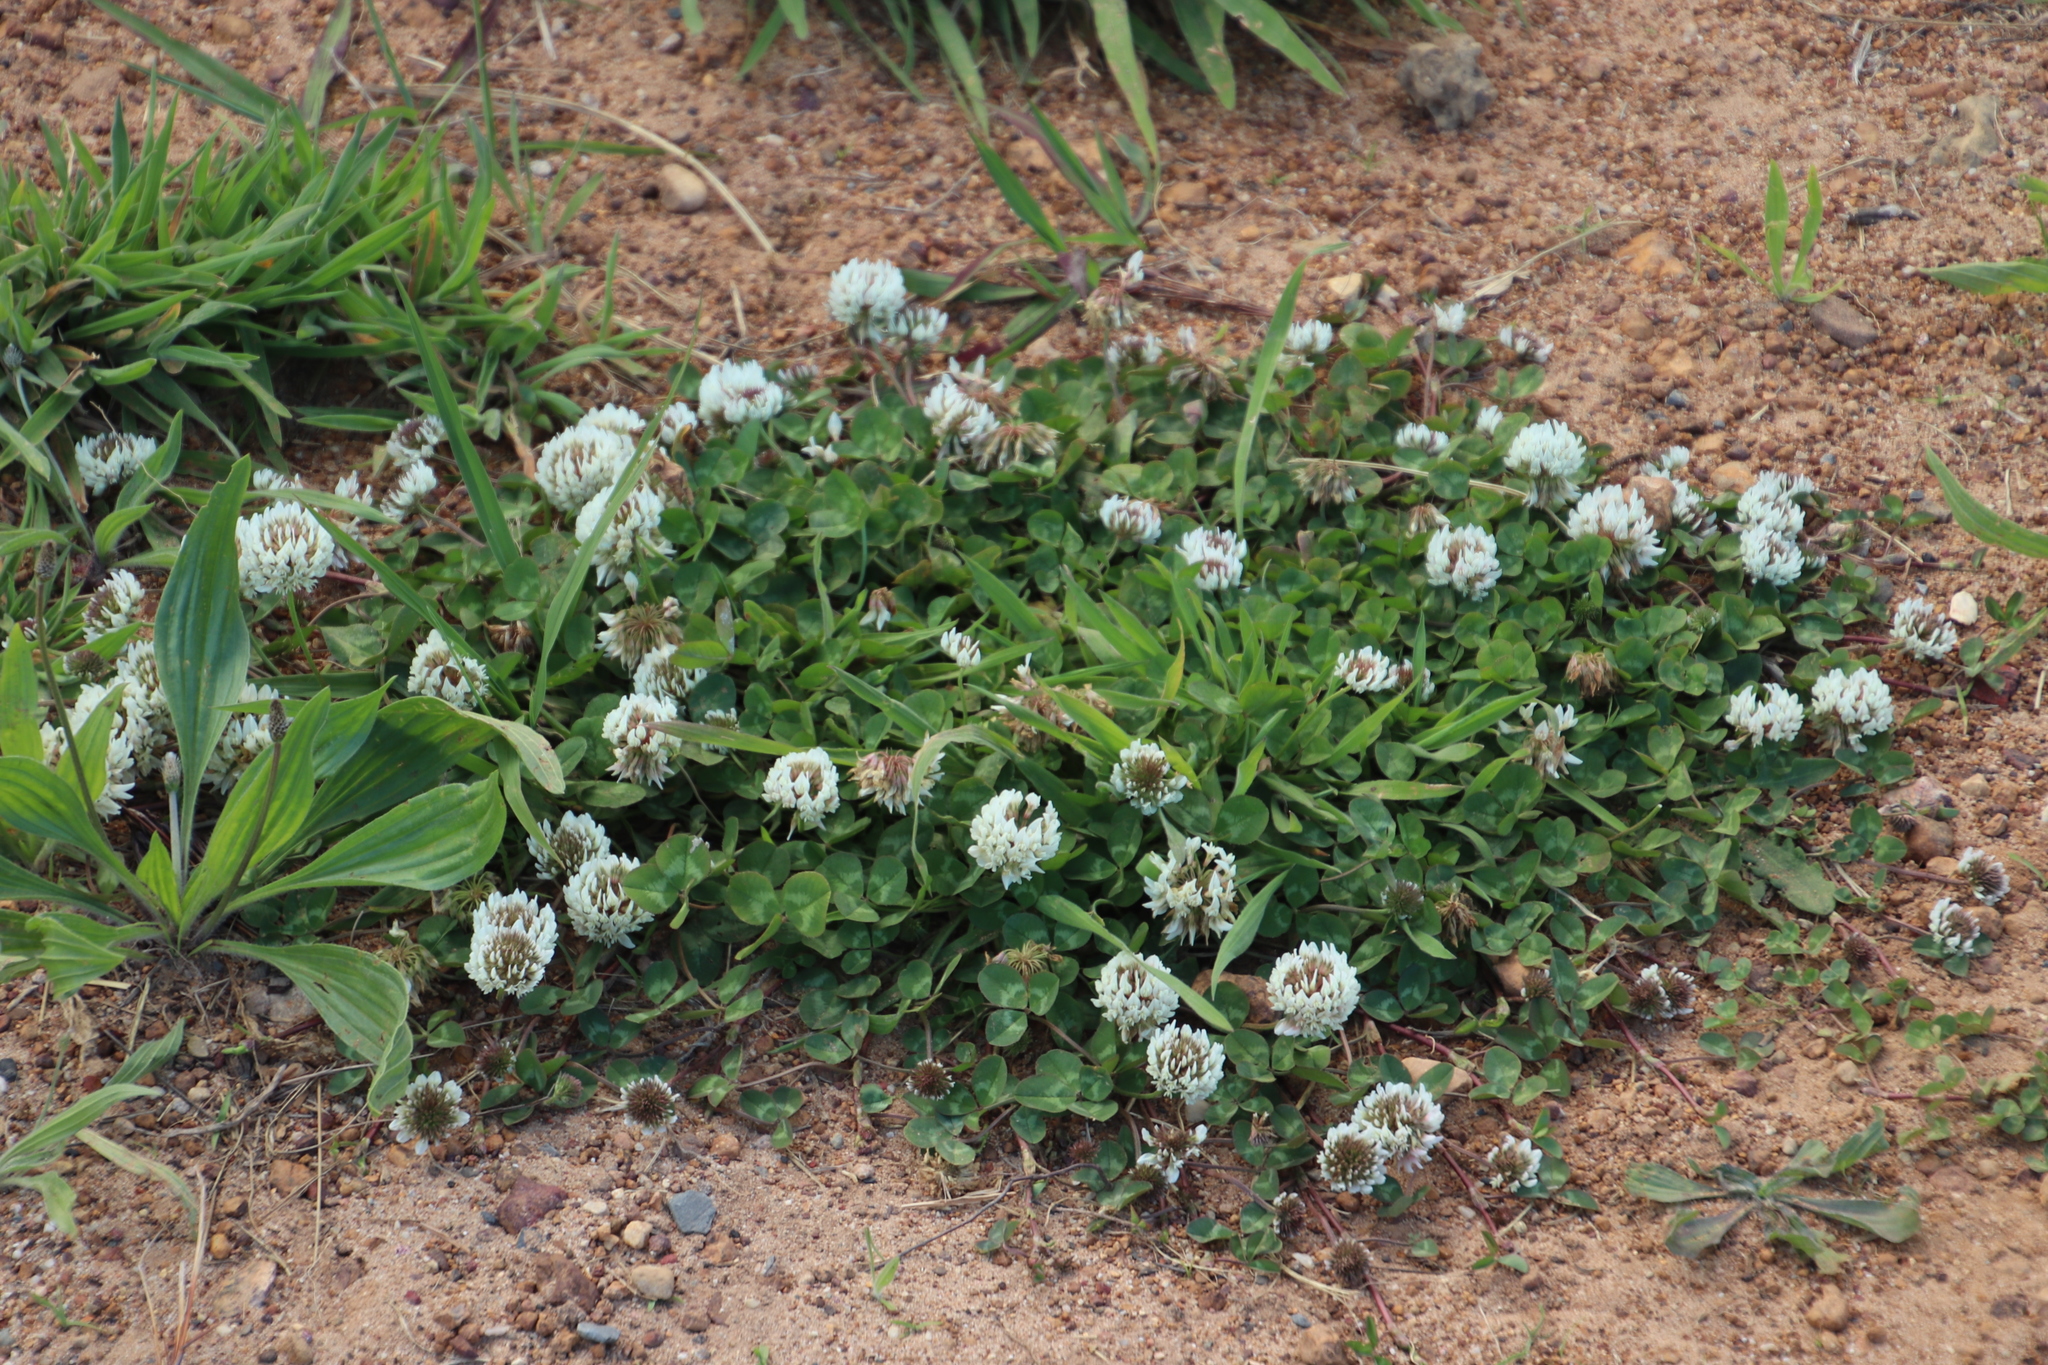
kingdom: Plantae
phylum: Tracheophyta
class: Magnoliopsida
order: Fabales
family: Fabaceae
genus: Trifolium
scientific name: Trifolium repens
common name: White clover
